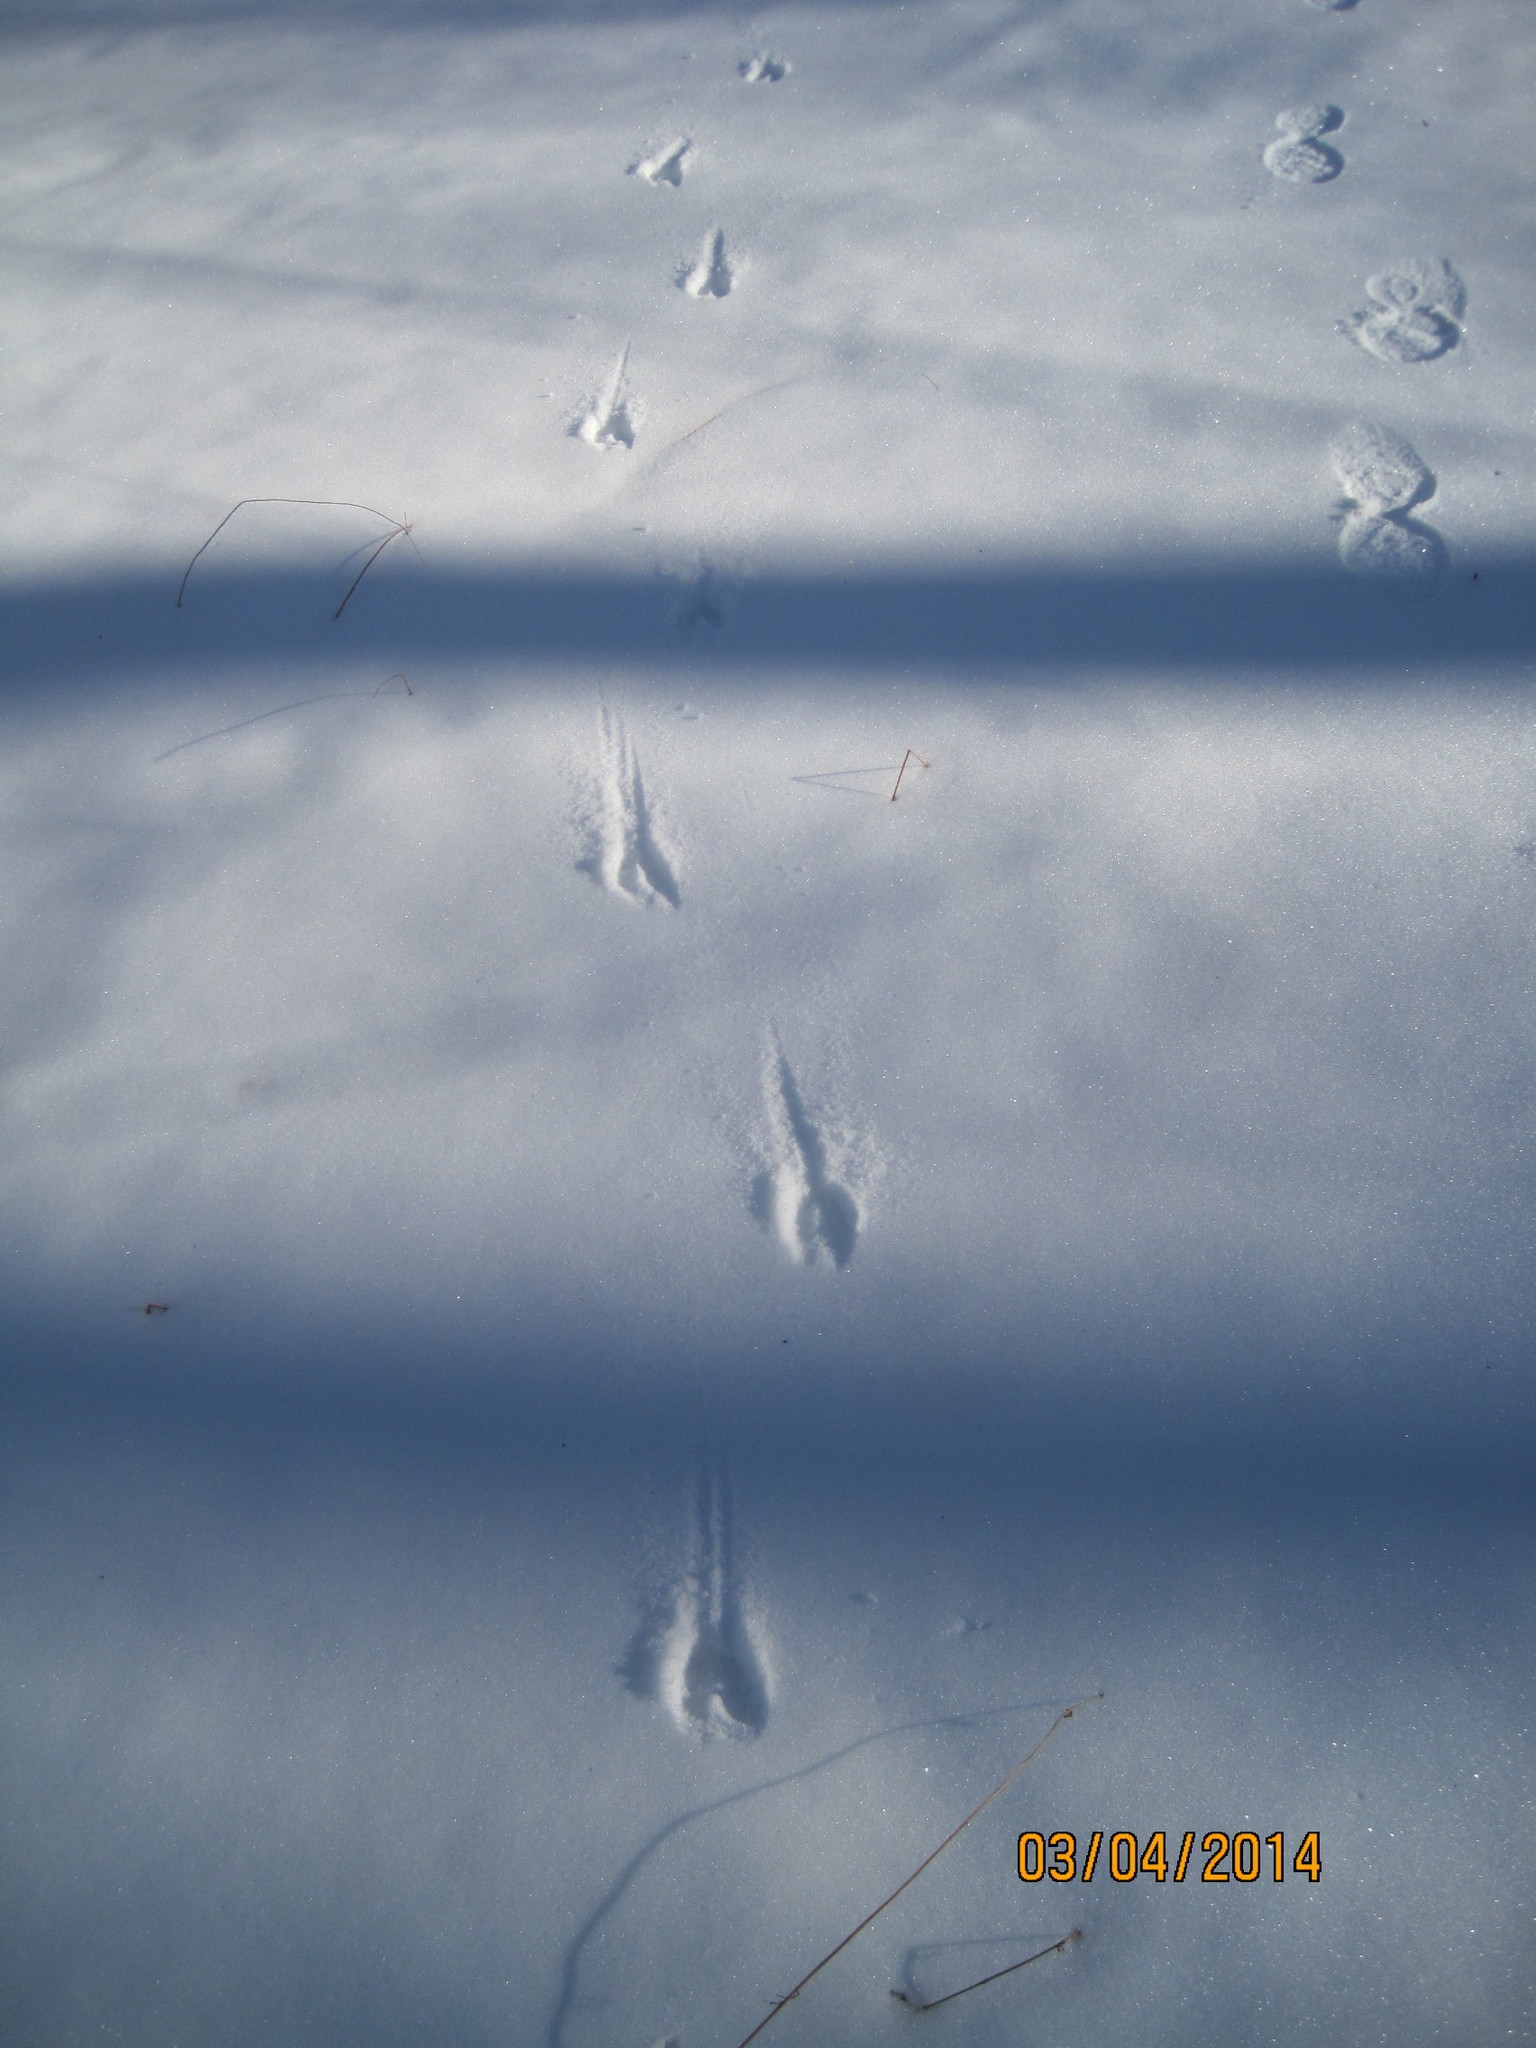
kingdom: Animalia
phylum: Chordata
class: Mammalia
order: Artiodactyla
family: Cervidae
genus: Odocoileus
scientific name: Odocoileus virginianus
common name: White-tailed deer
